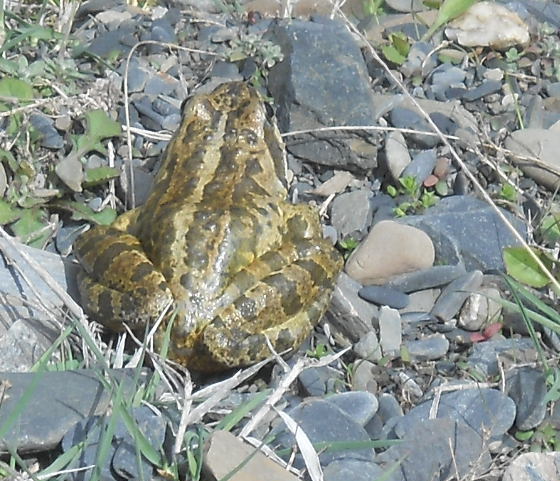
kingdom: Animalia
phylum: Chordata
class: Amphibia
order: Anura
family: Ranidae
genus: Rana
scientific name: Rana macrocnemis
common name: Banded frog
